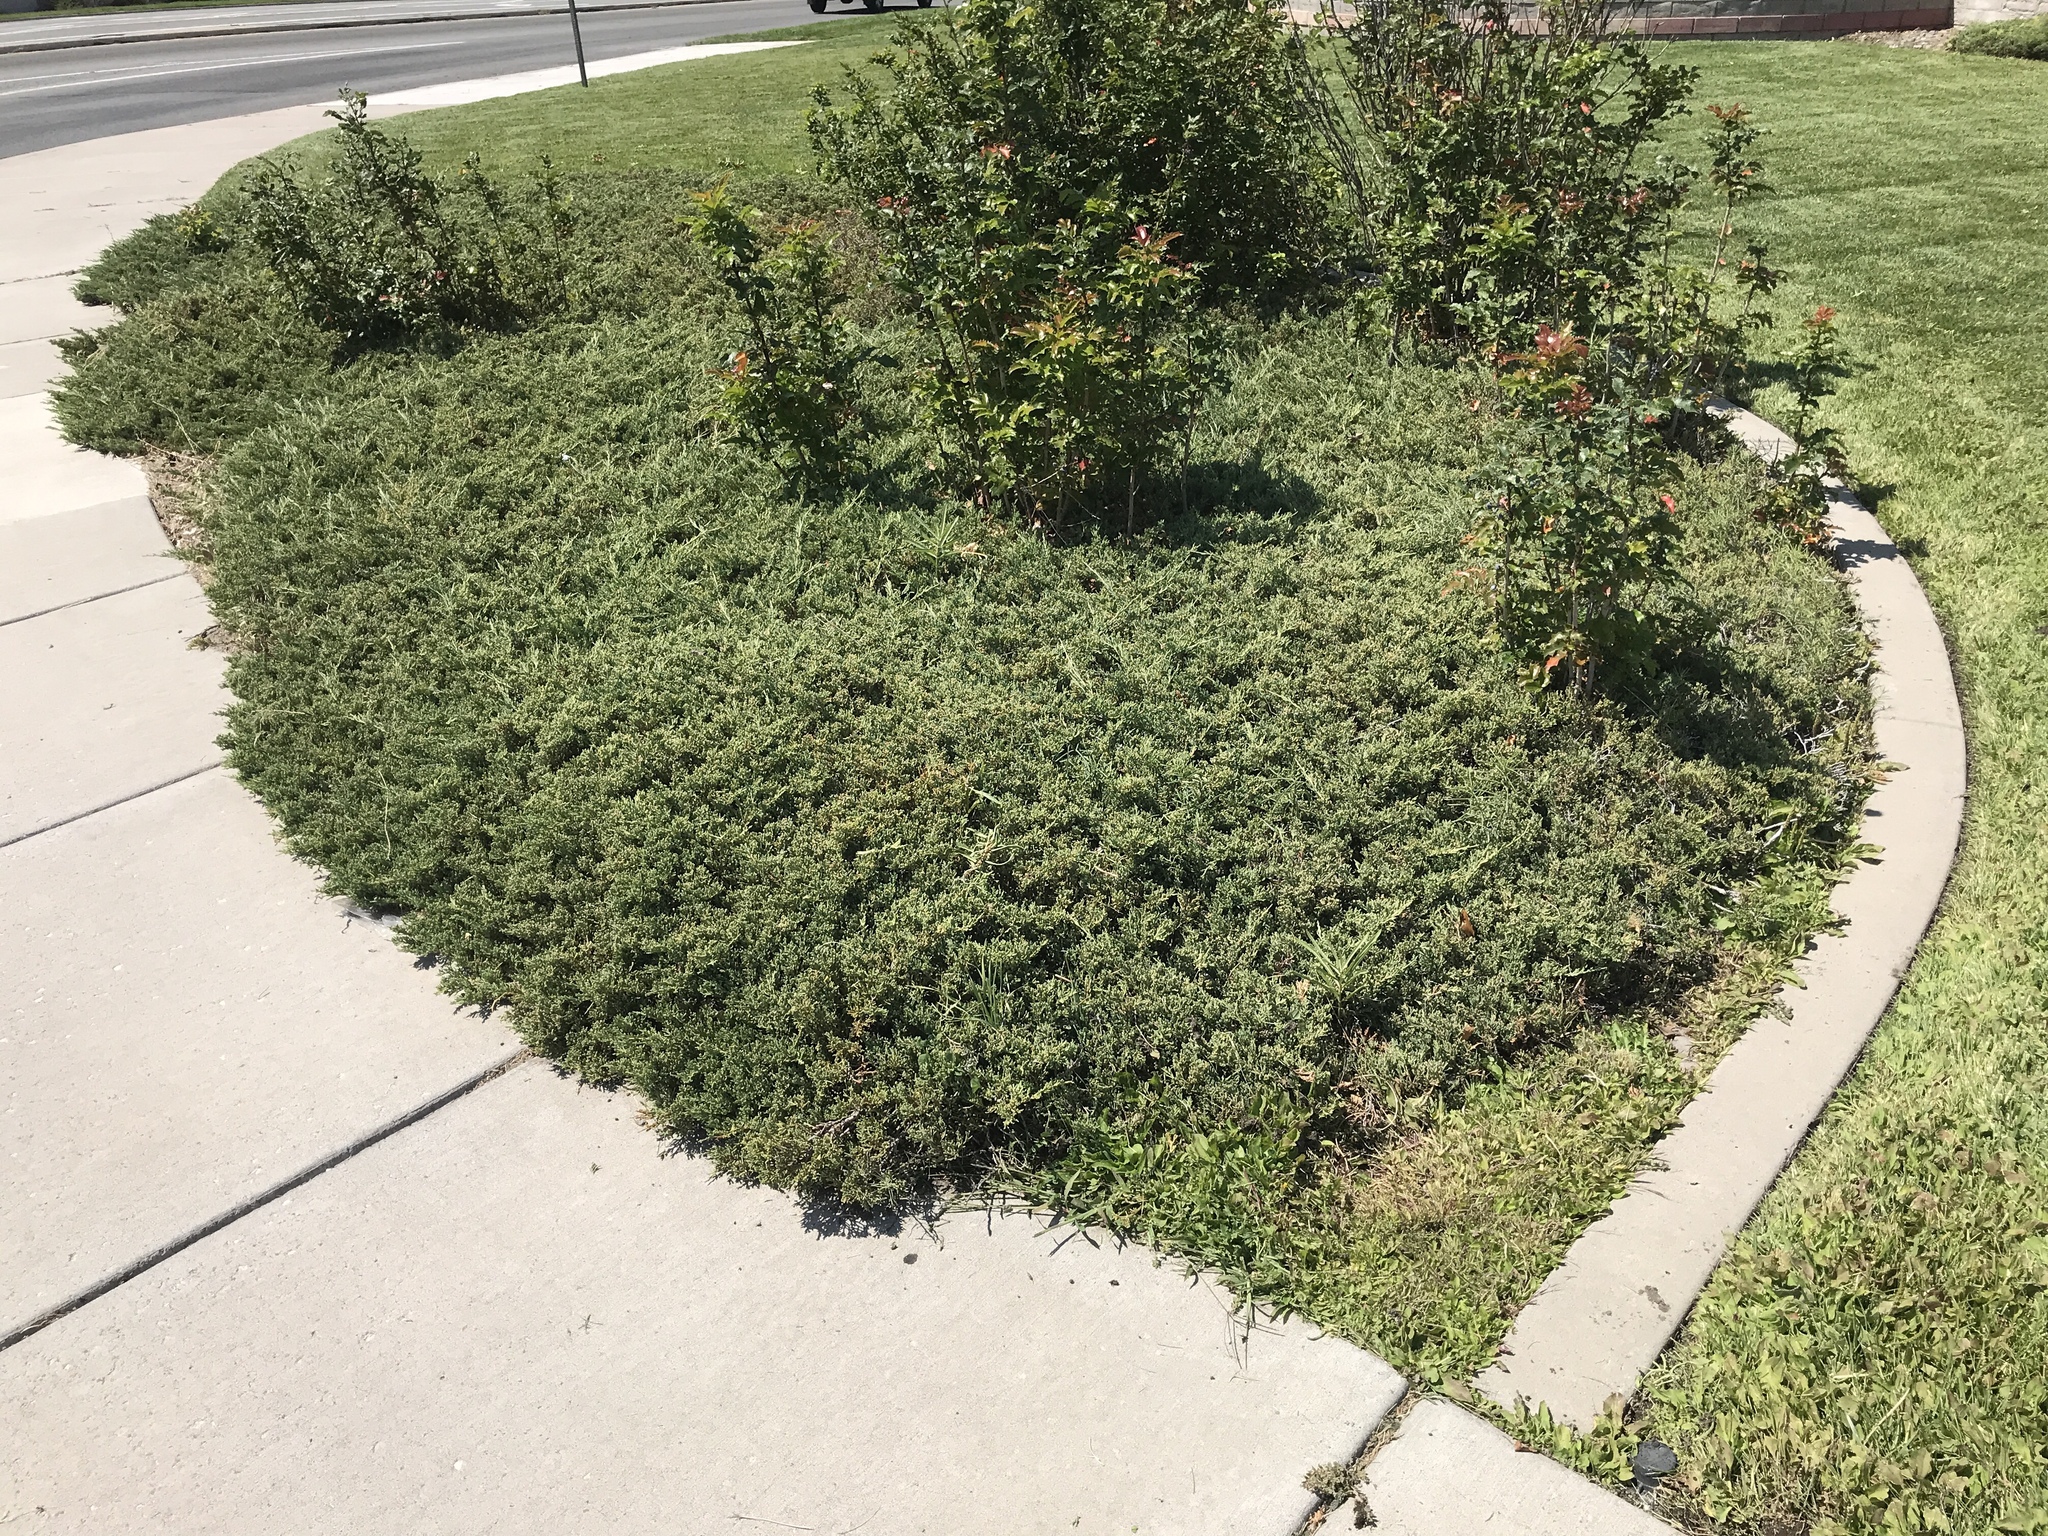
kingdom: Plantae
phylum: Tracheophyta
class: Magnoliopsida
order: Gentianales
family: Apocynaceae
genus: Asclepias
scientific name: Asclepias speciosa
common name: Showy milkweed
